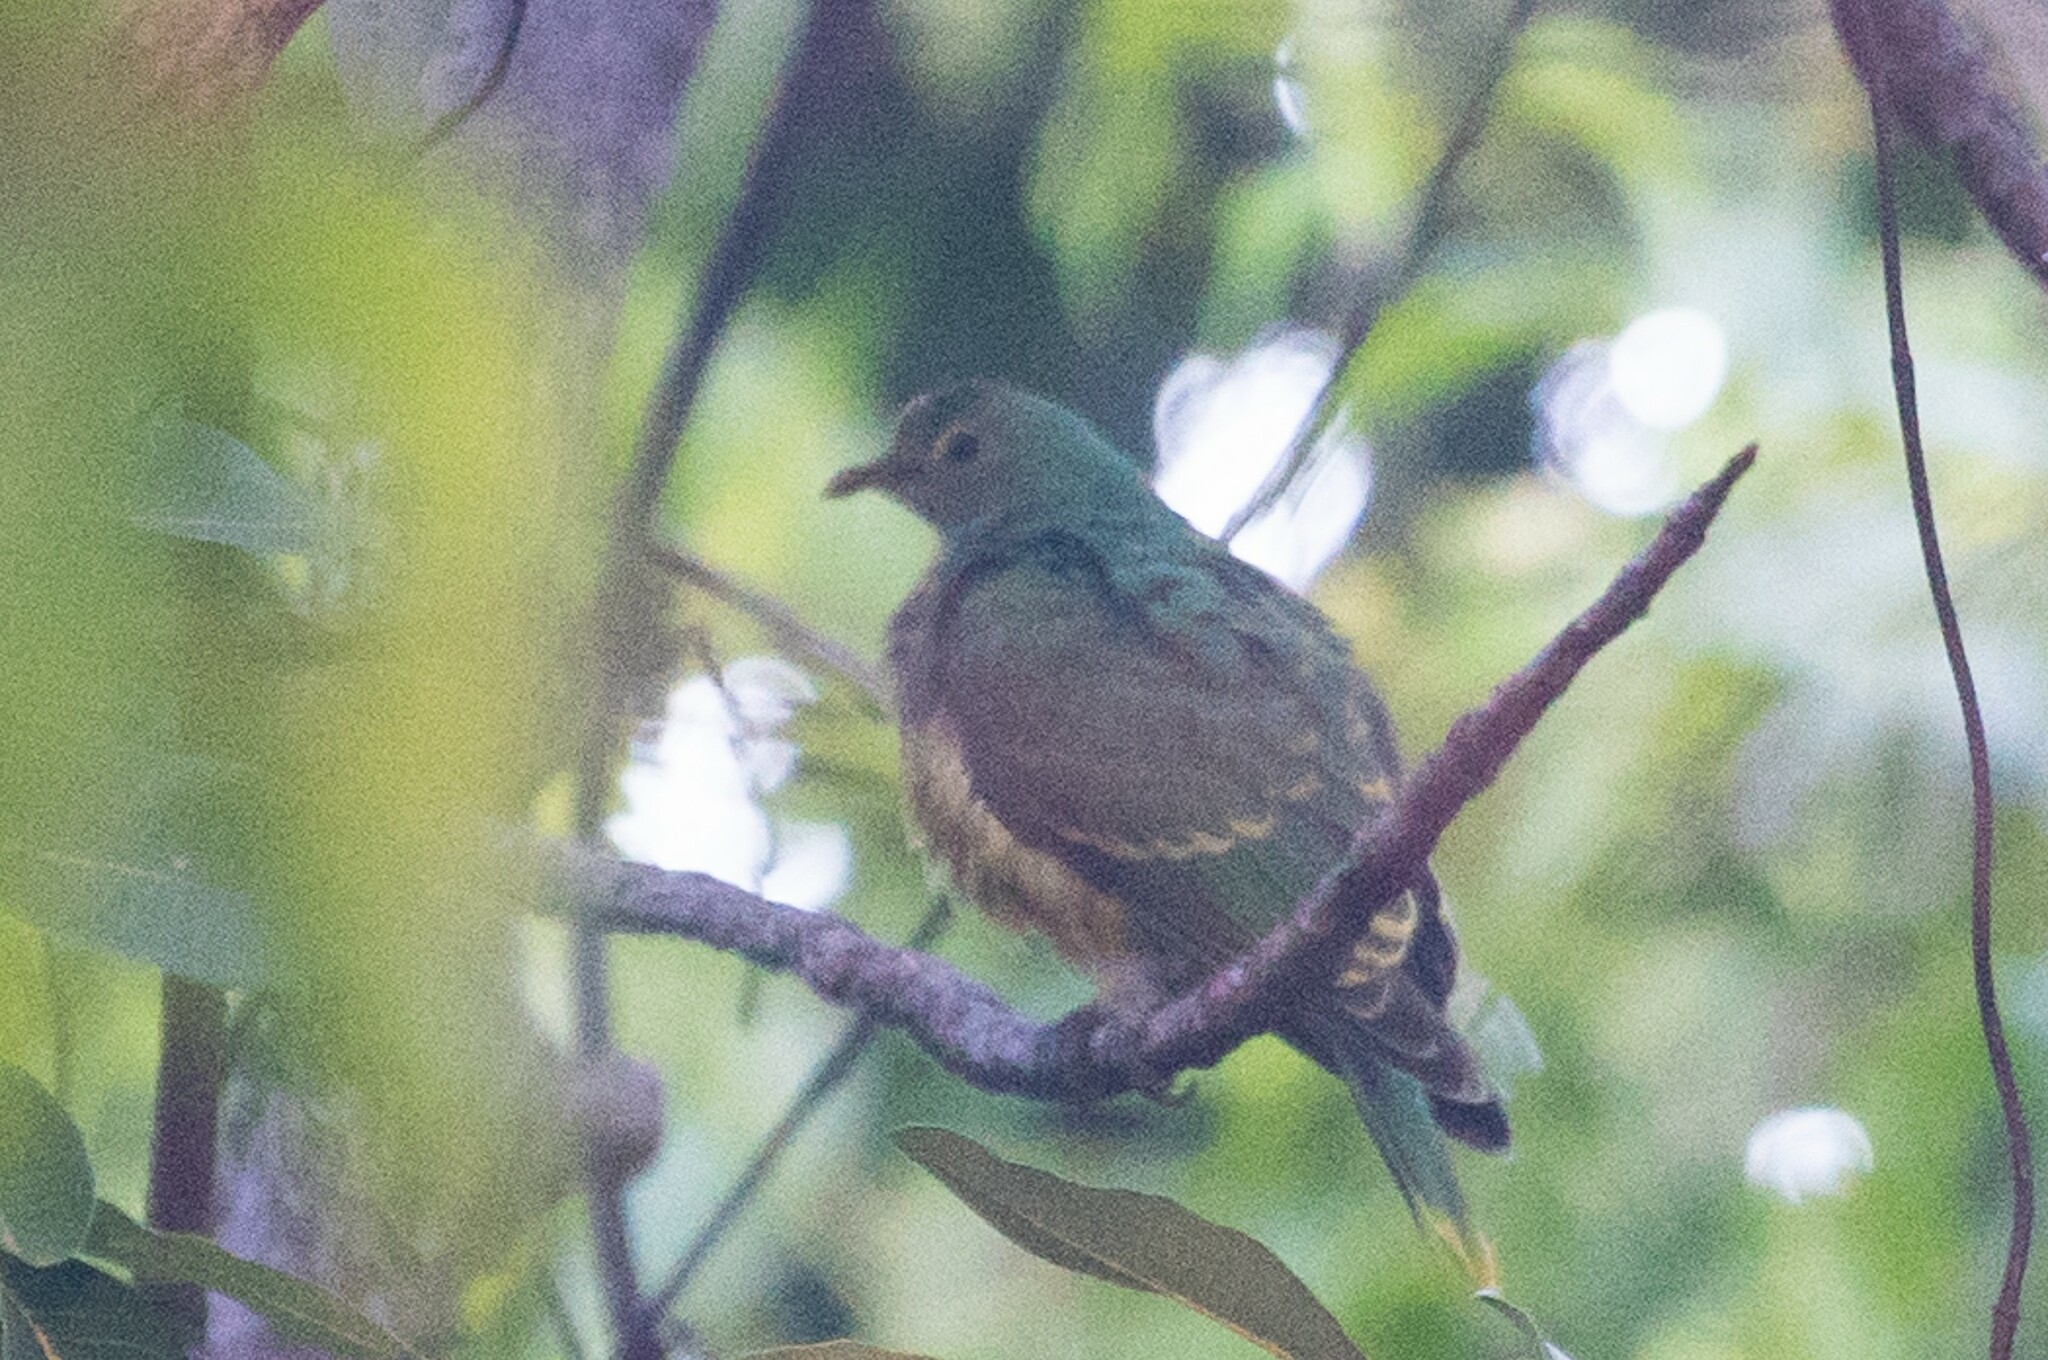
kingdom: Animalia
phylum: Chordata
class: Aves
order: Columbiformes
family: Columbidae
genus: Ptilinopus
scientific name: Ptilinopus regina
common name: Rose-crowned fruit dove
